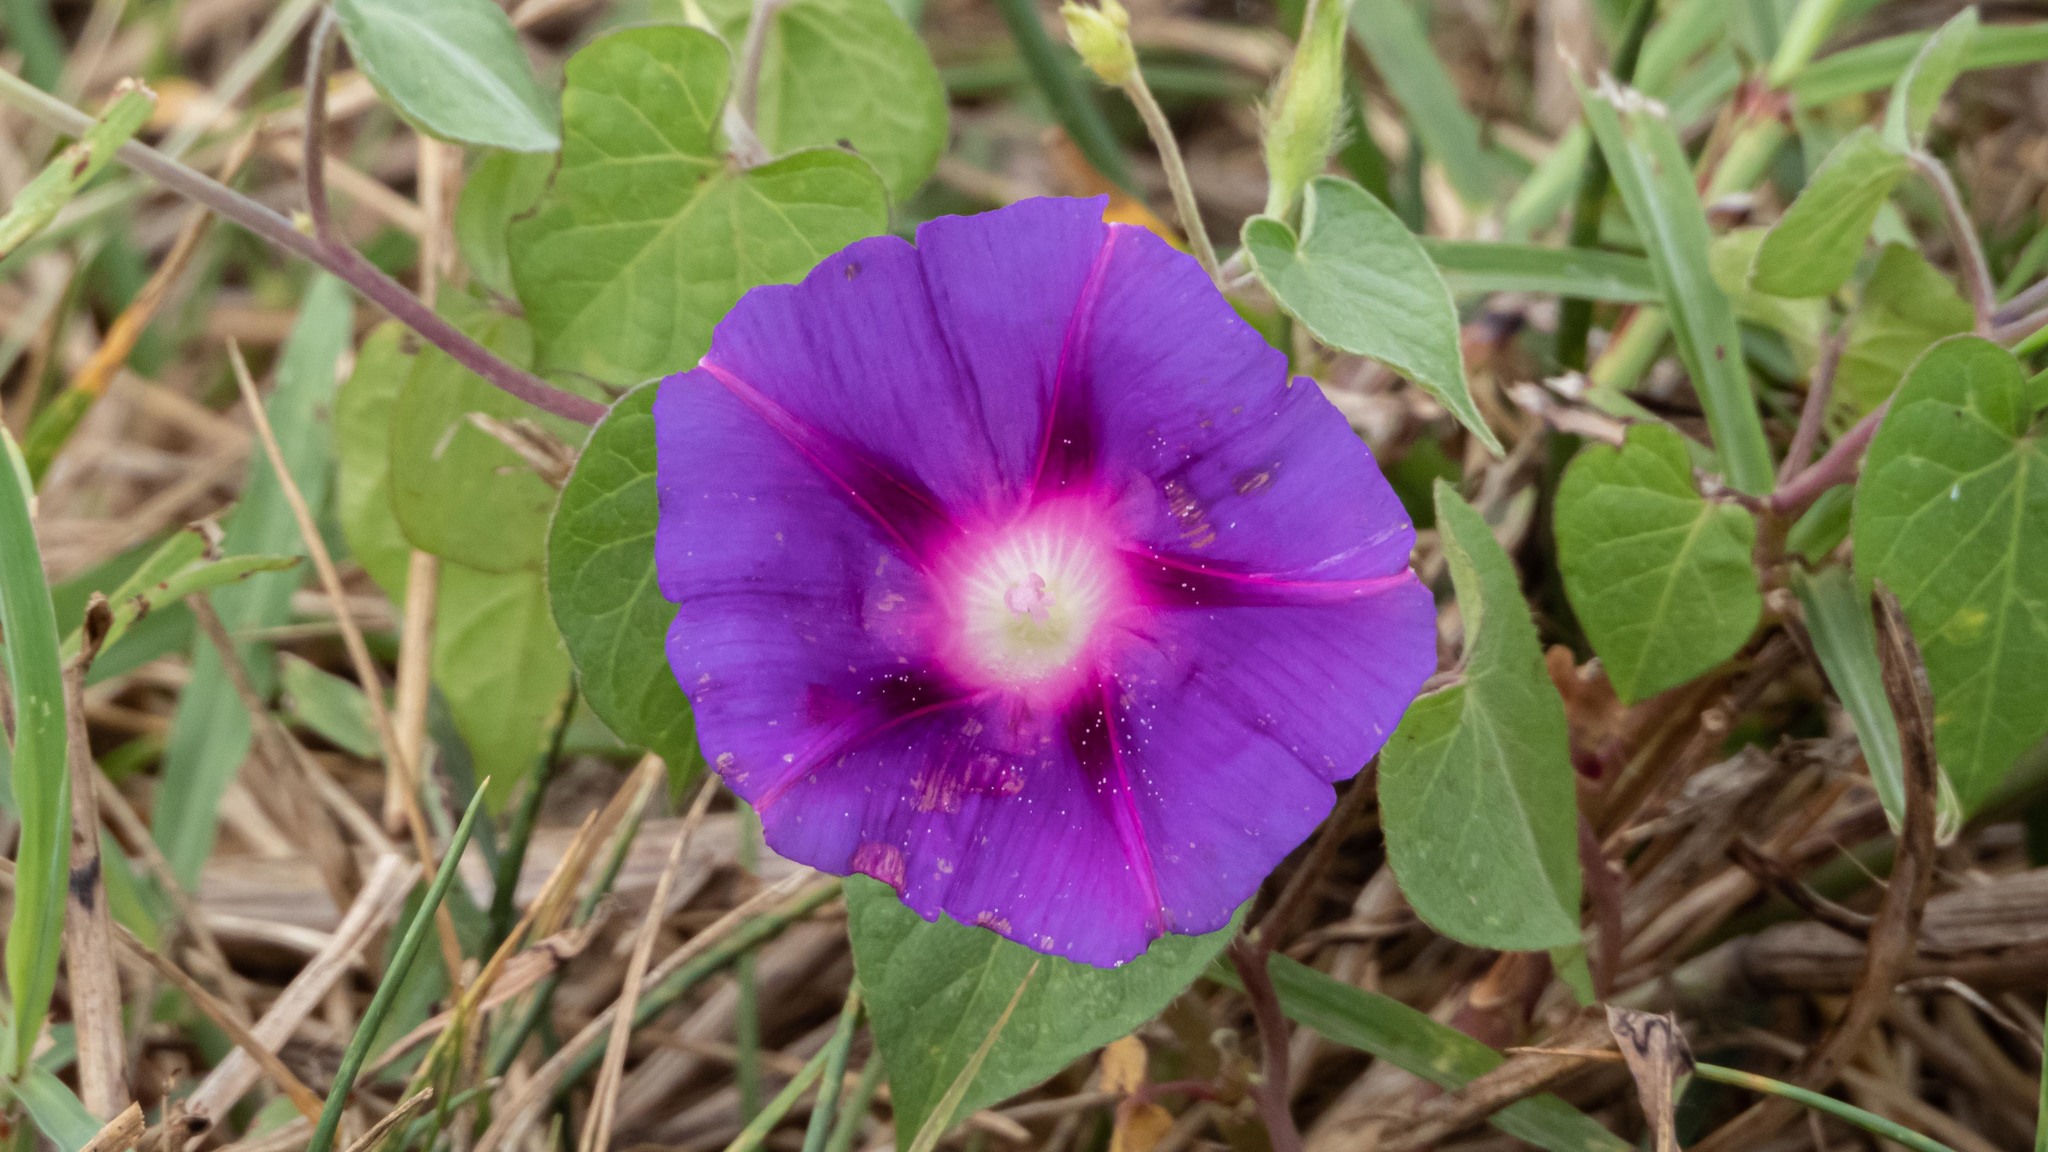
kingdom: Plantae
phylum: Tracheophyta
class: Magnoliopsida
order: Solanales
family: Convolvulaceae
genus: Ipomoea
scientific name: Ipomoea purpurea
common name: Common morning-glory
